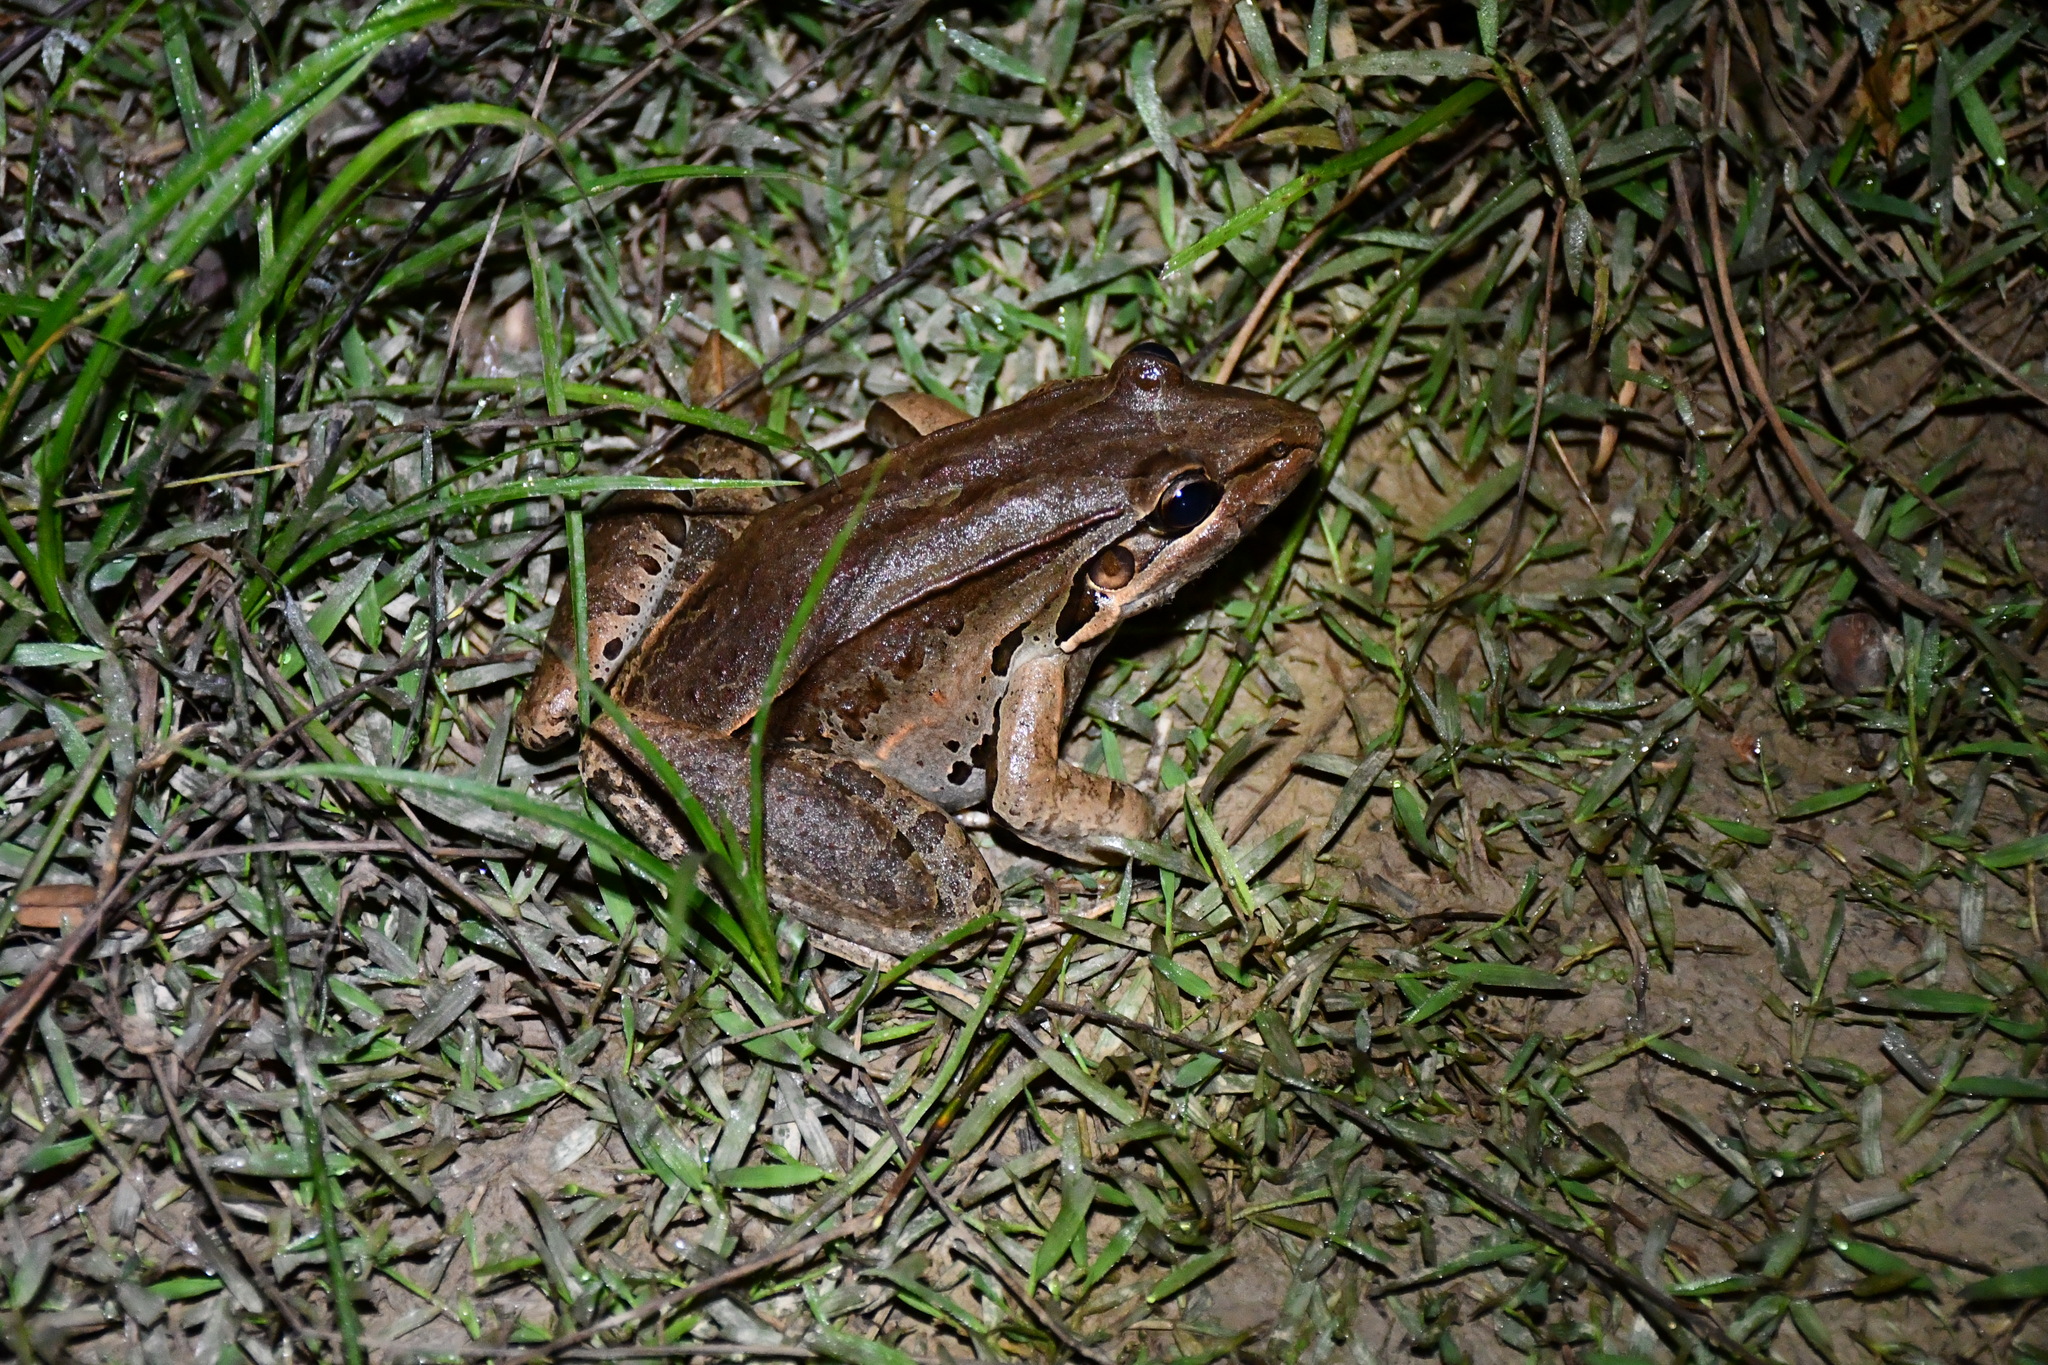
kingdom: Animalia
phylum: Chordata
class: Amphibia
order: Anura
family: Leptodactylidae
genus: Leptodactylus
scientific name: Leptodactylus bolivianus
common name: Bolivian white-lipped frog
